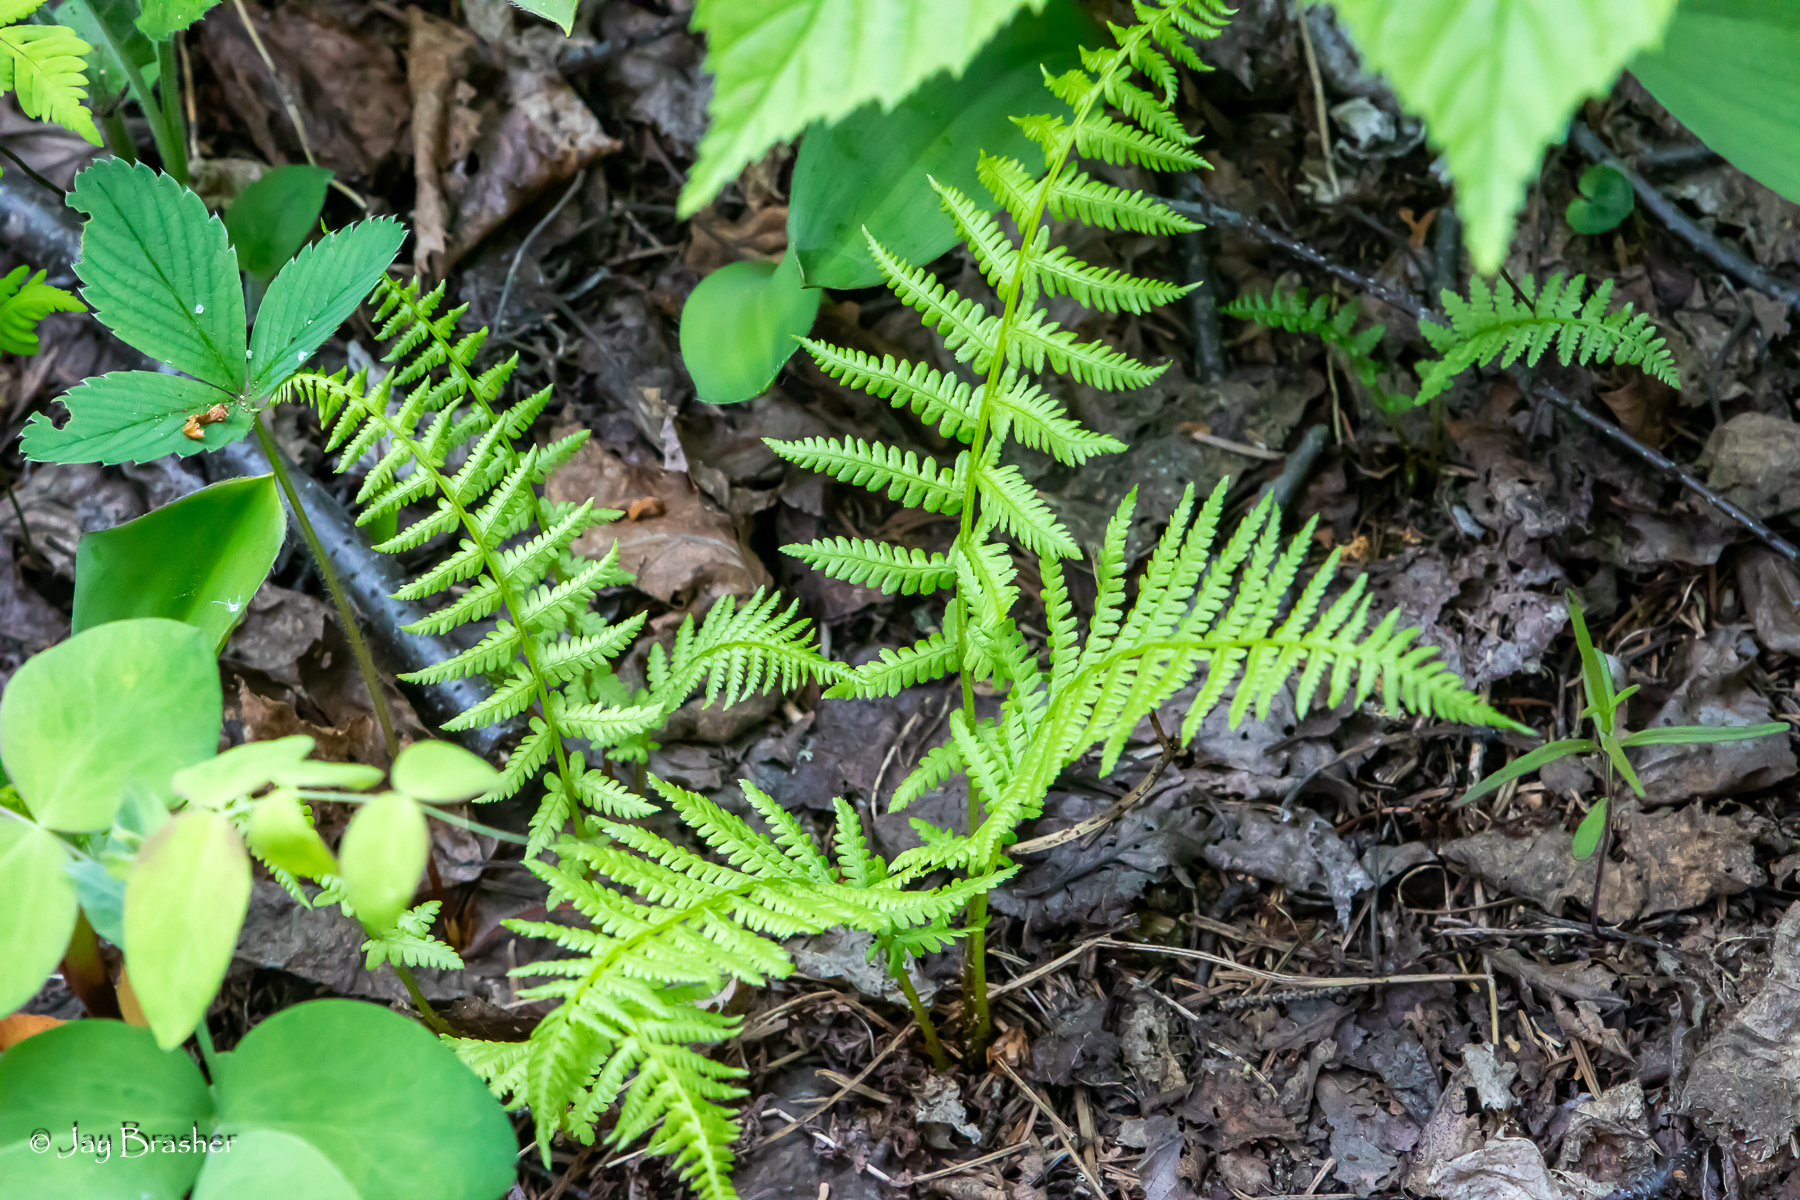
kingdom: Plantae
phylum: Tracheophyta
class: Polypodiopsida
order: Polypodiales
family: Athyriaceae
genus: Athyrium
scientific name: Athyrium angustum
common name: Northern lady fern
